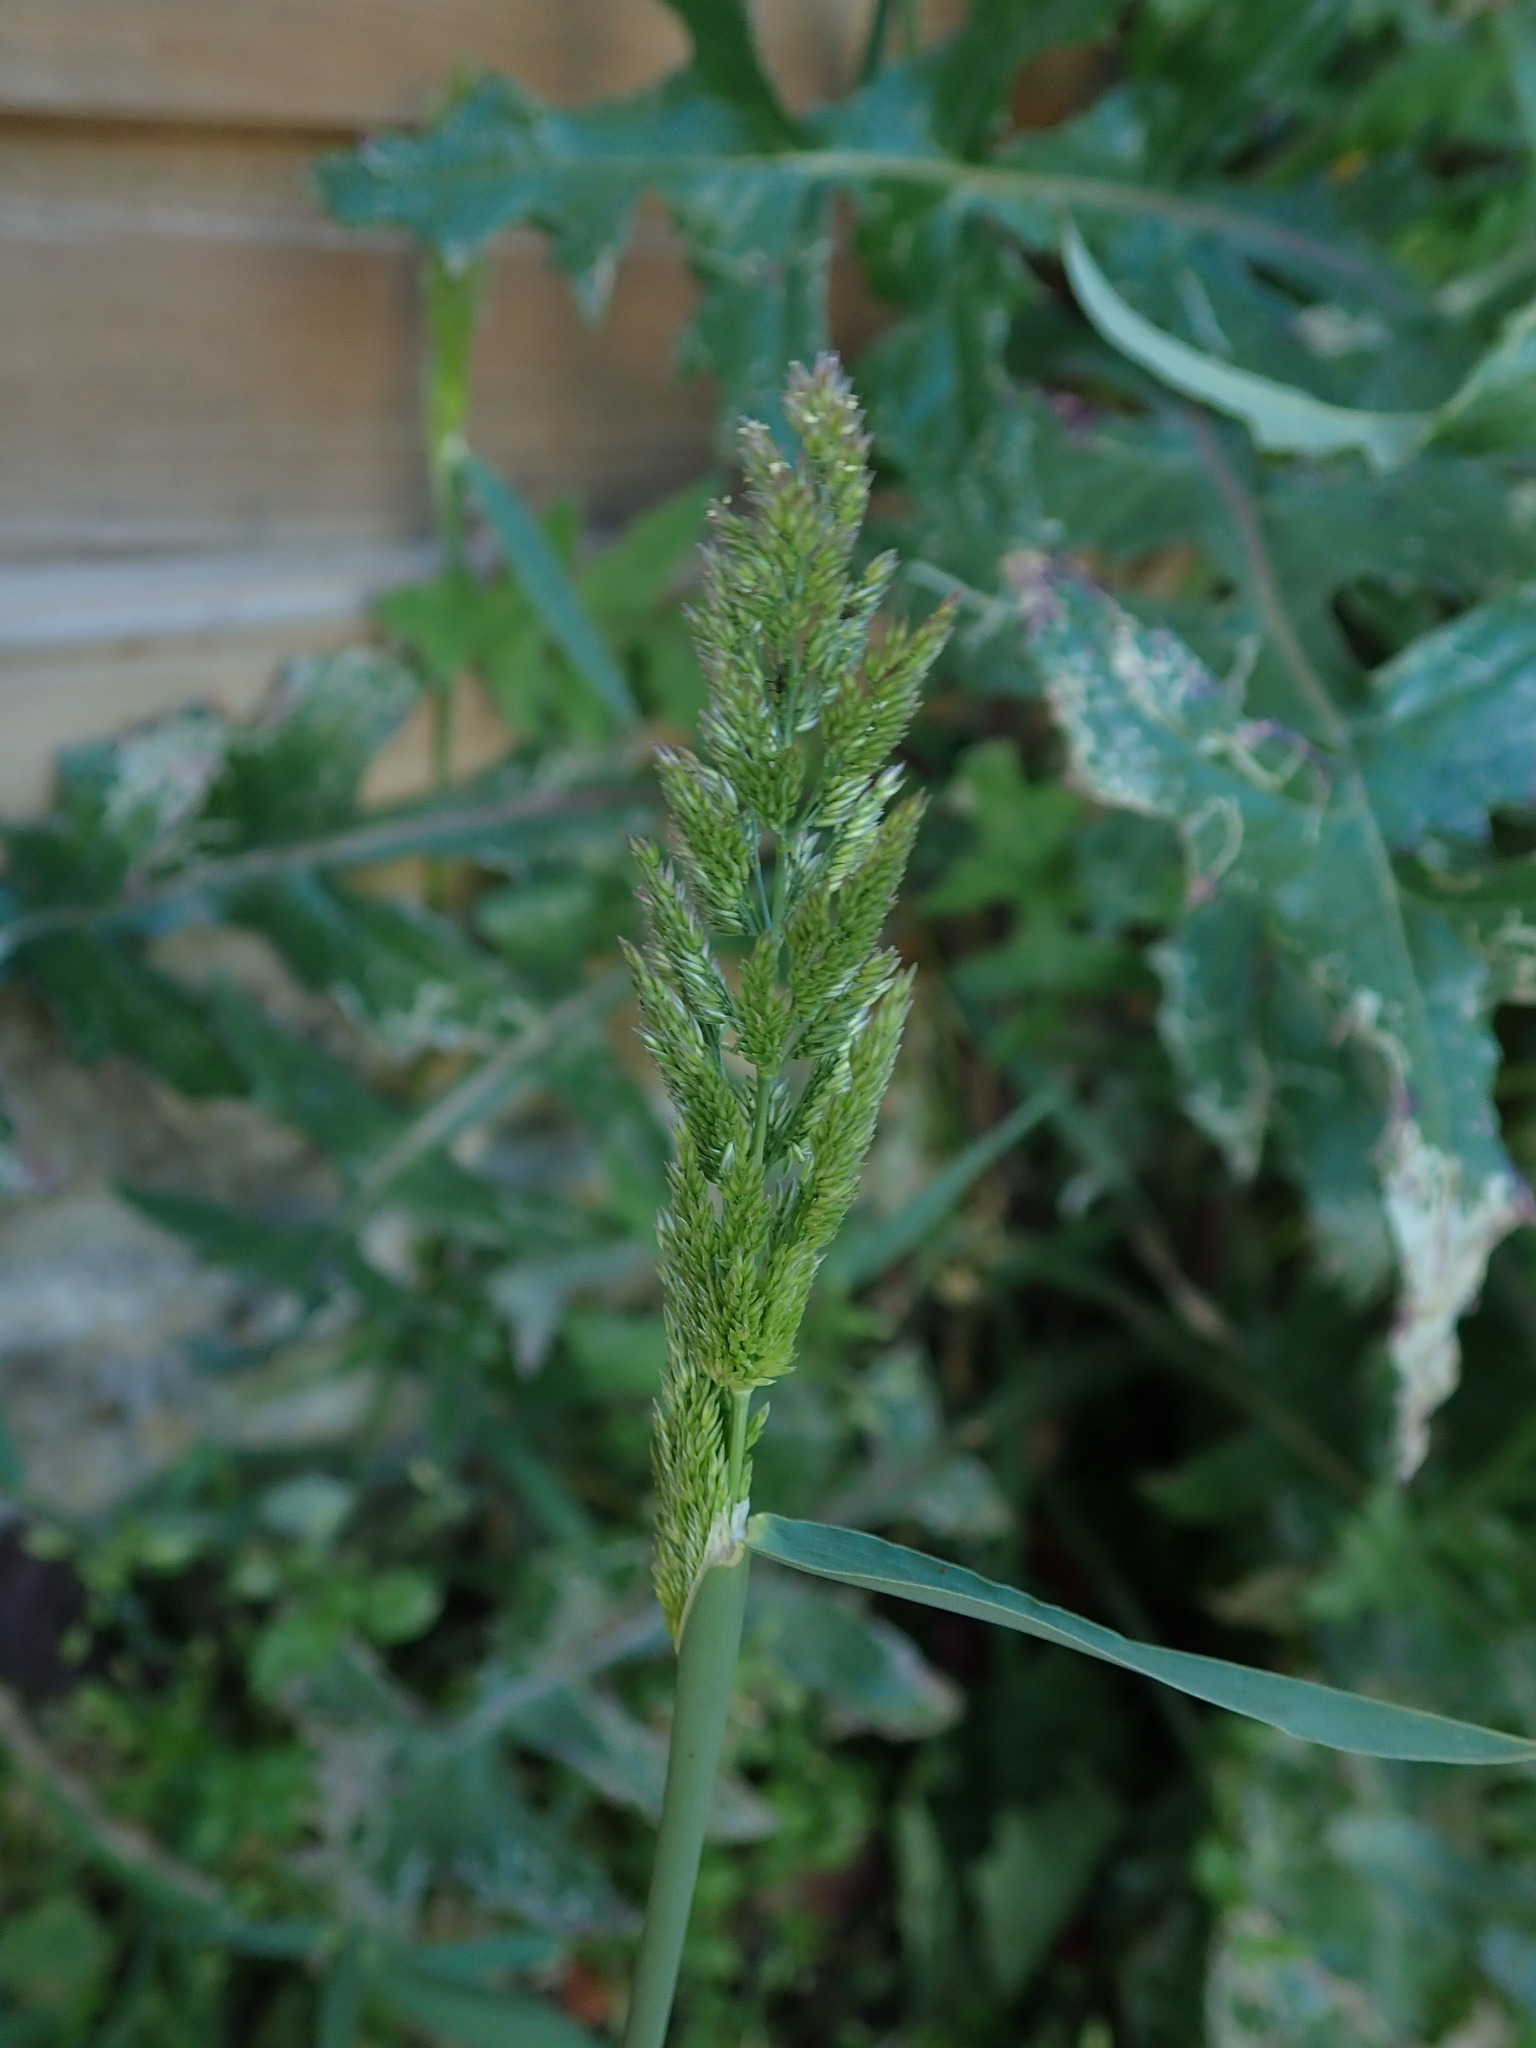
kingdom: Plantae
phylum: Tracheophyta
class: Liliopsida
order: Poales
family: Poaceae
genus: Polypogon
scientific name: Polypogon viridis
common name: Water bent
